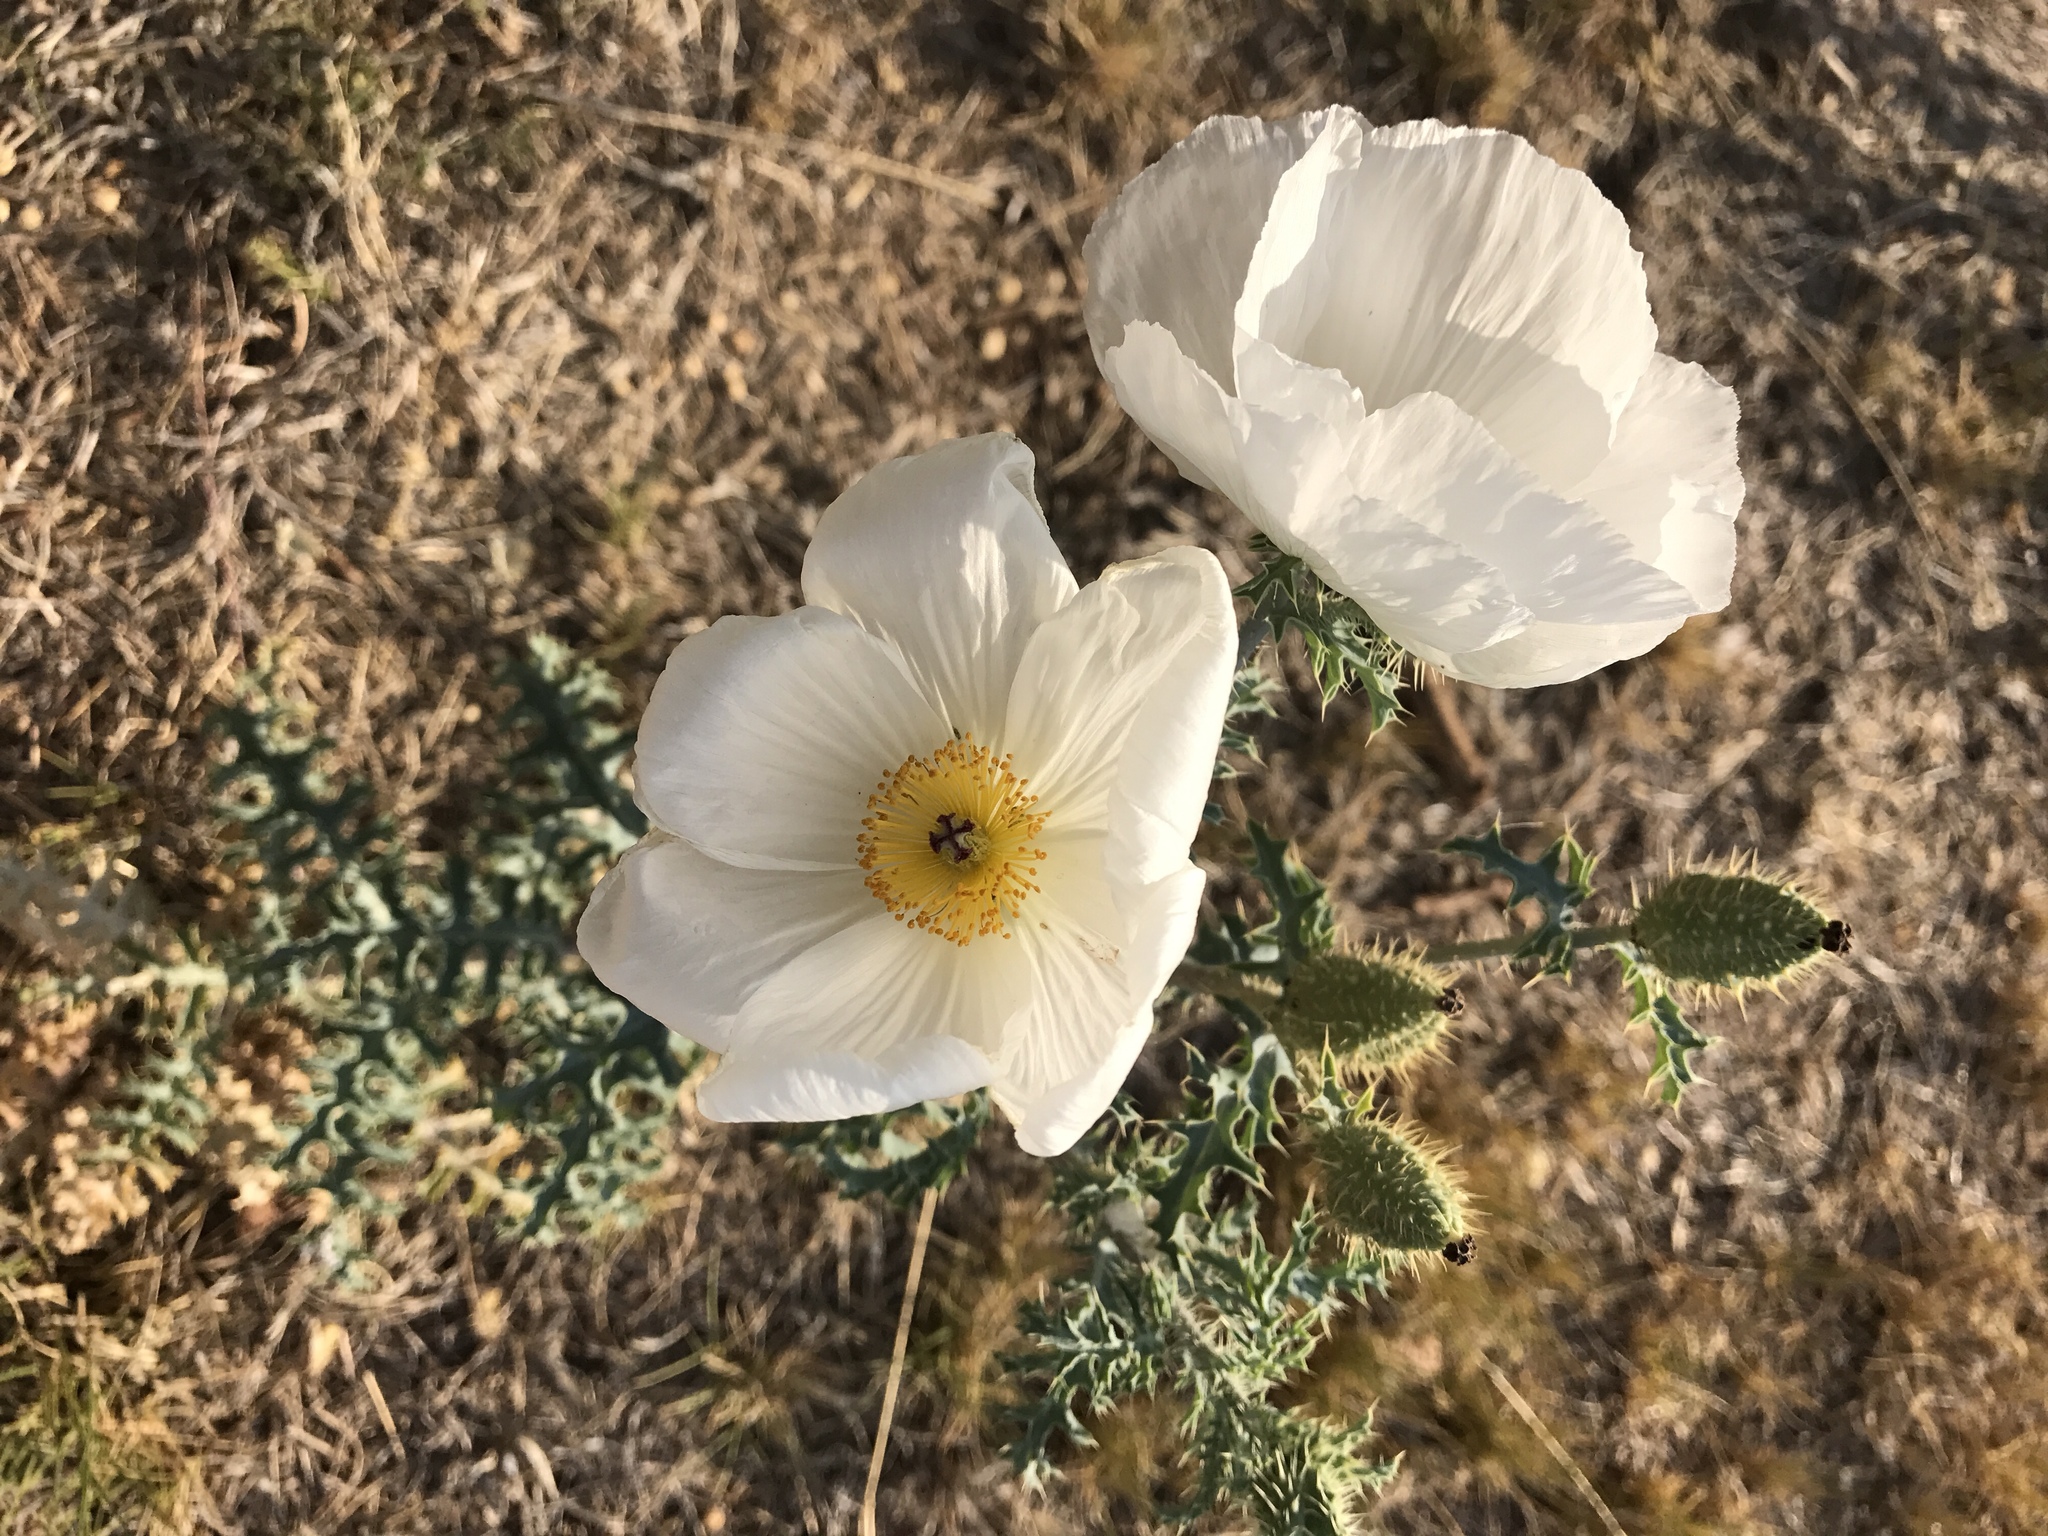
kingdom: Plantae
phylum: Tracheophyta
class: Magnoliopsida
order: Ranunculales
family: Papaveraceae
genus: Argemone
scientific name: Argemone pleiacantha
